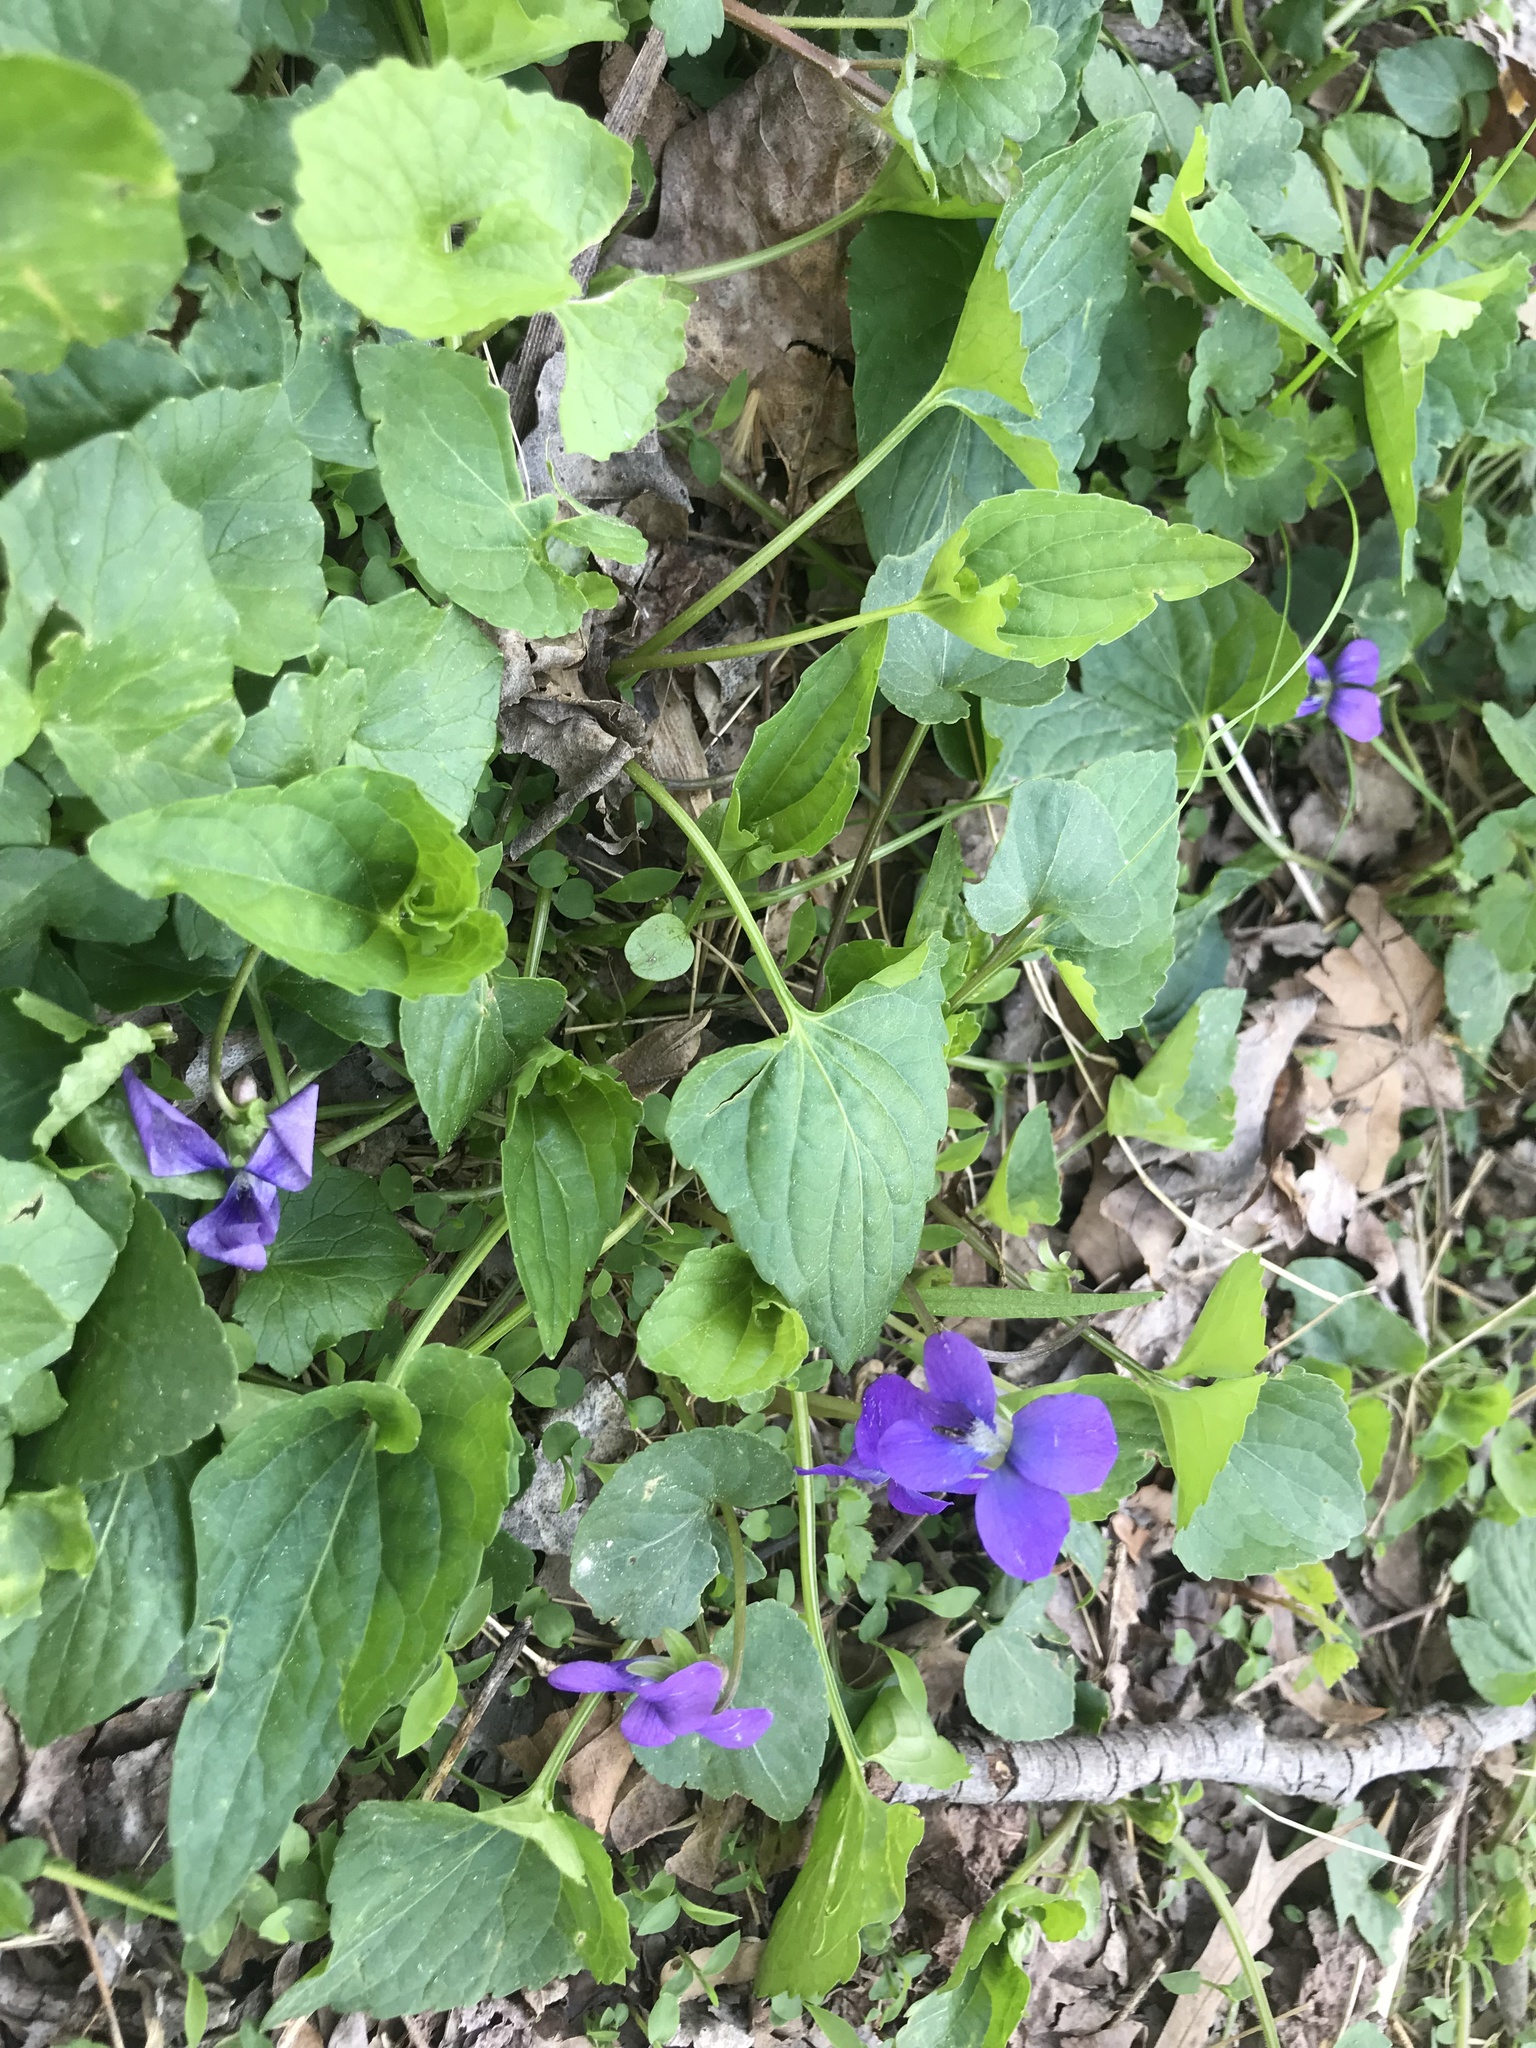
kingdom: Plantae
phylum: Tracheophyta
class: Magnoliopsida
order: Malpighiales
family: Violaceae
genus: Viola
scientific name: Viola sororia
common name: Dooryard violet
